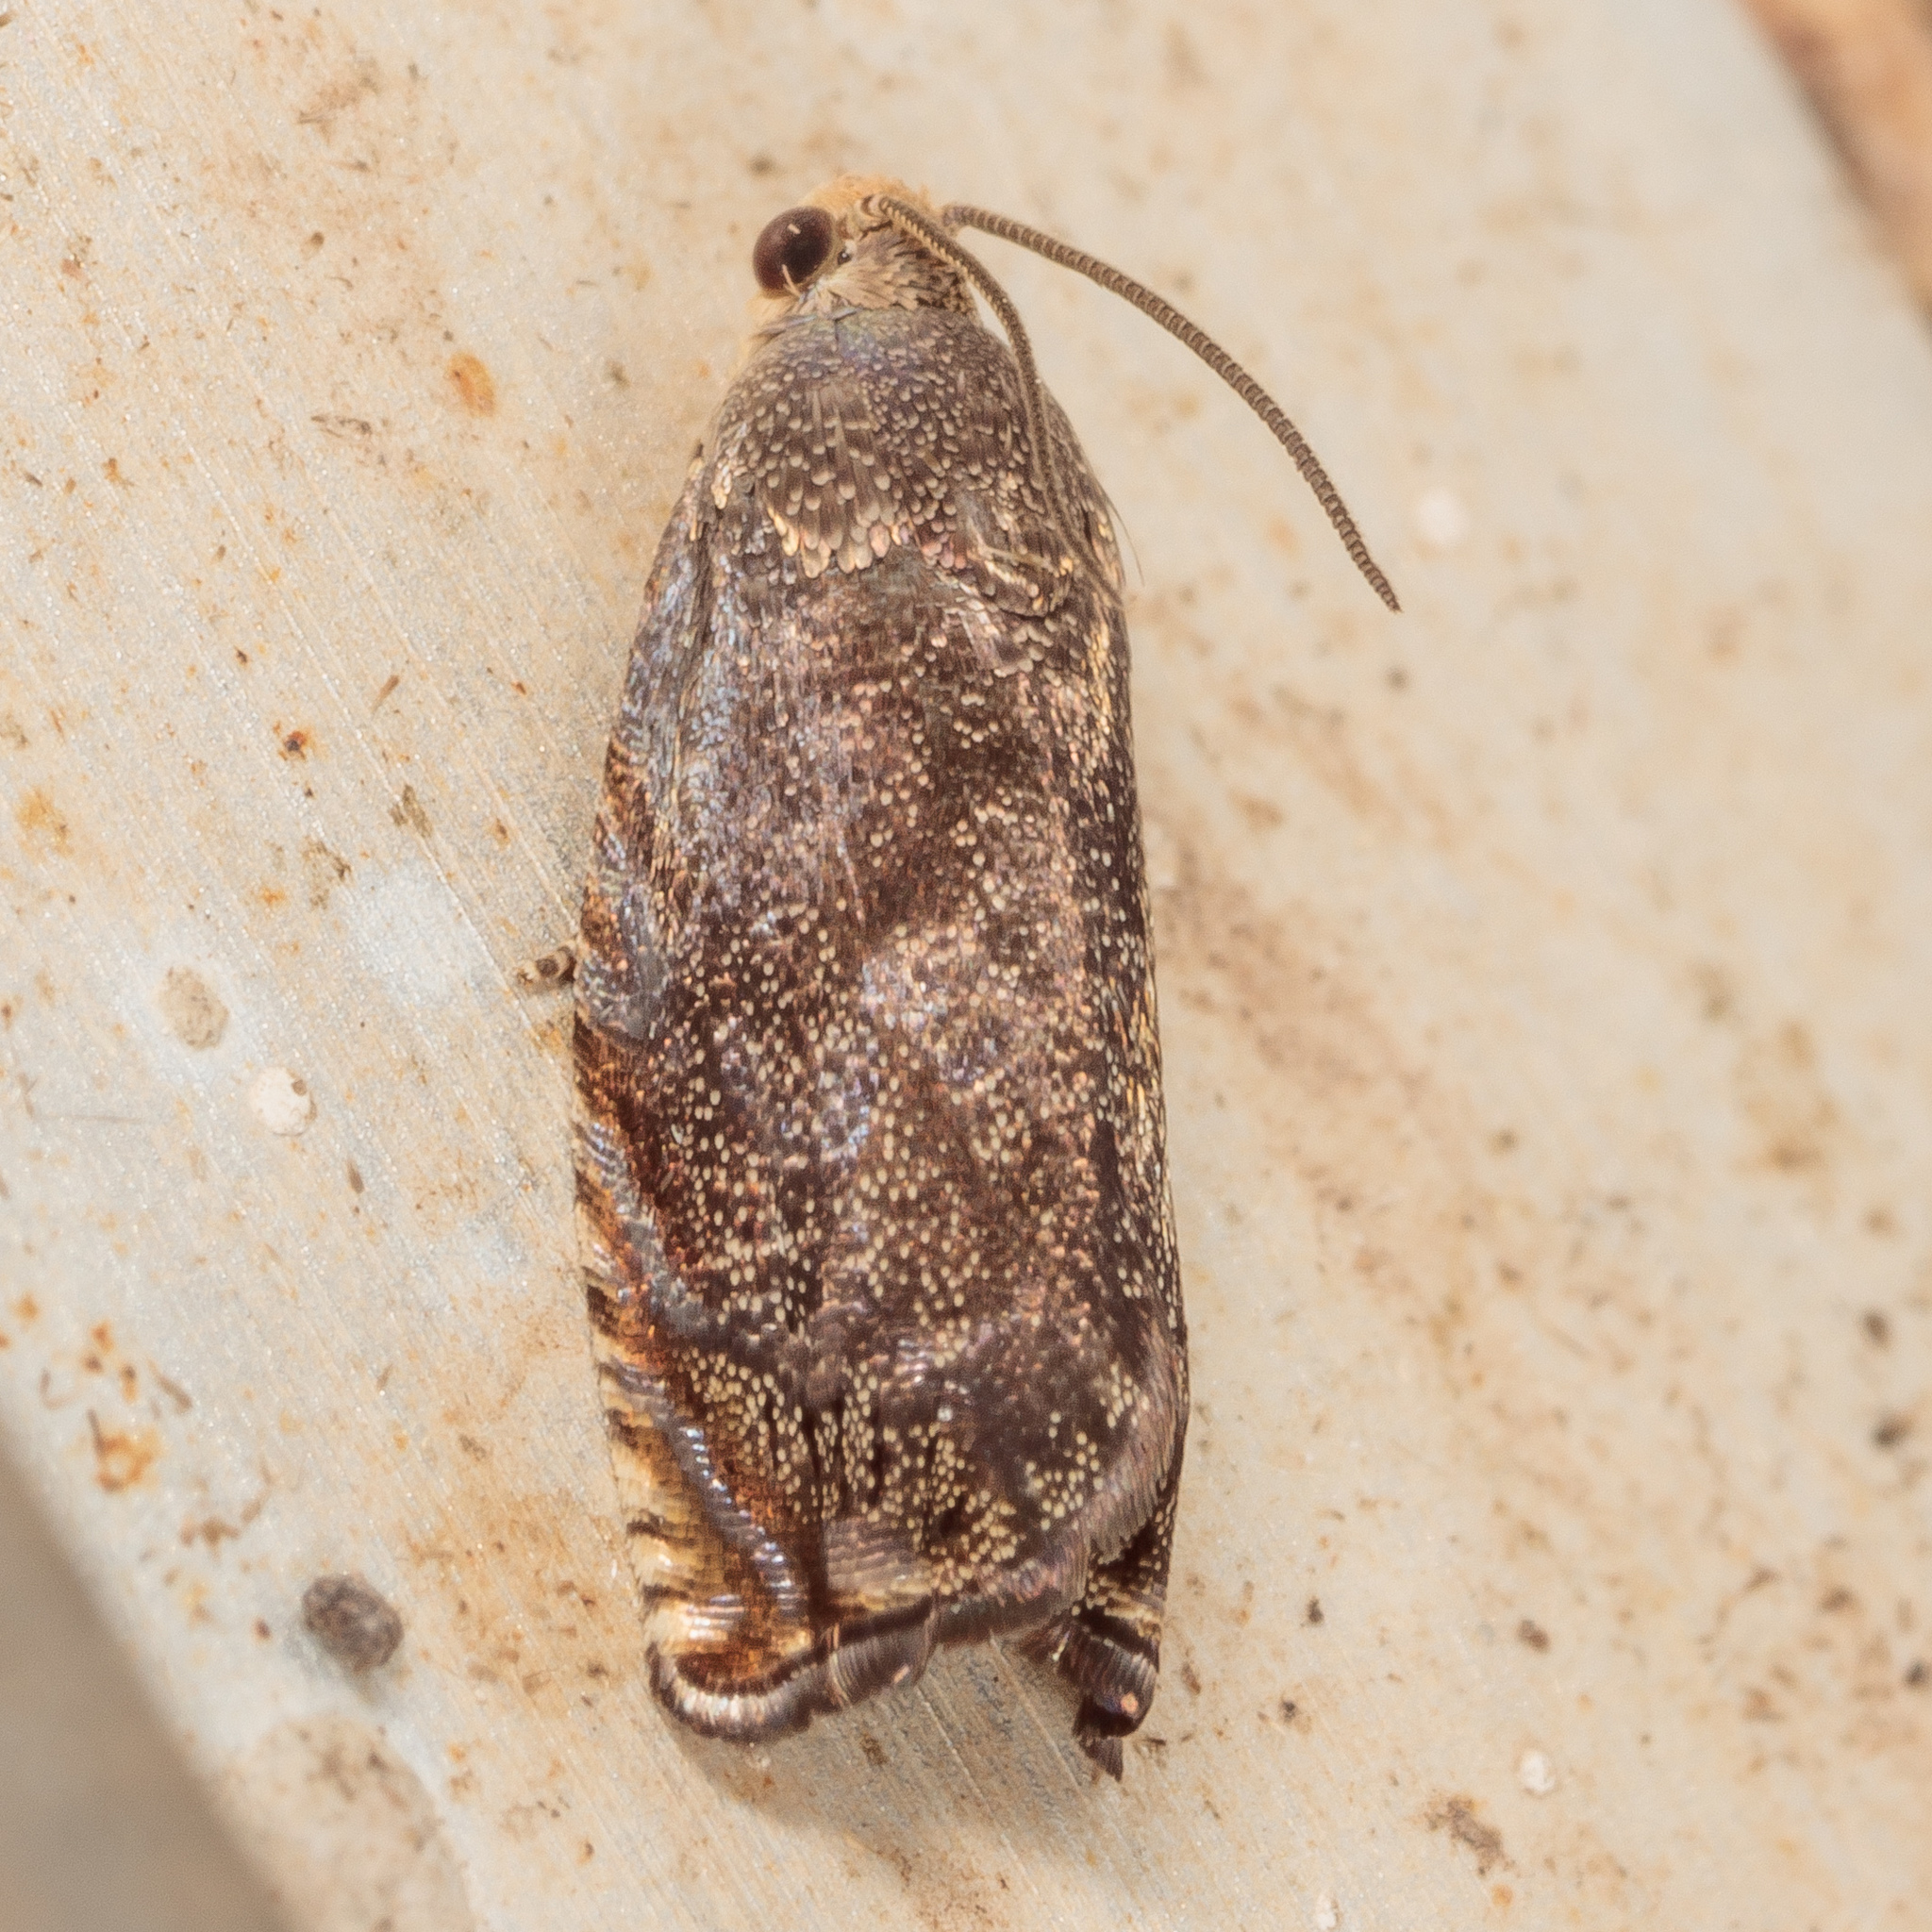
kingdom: Animalia
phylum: Arthropoda
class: Insecta
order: Lepidoptera
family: Tortricidae
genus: Cydia
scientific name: Cydia caryana
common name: Hickory shuckworm moth
